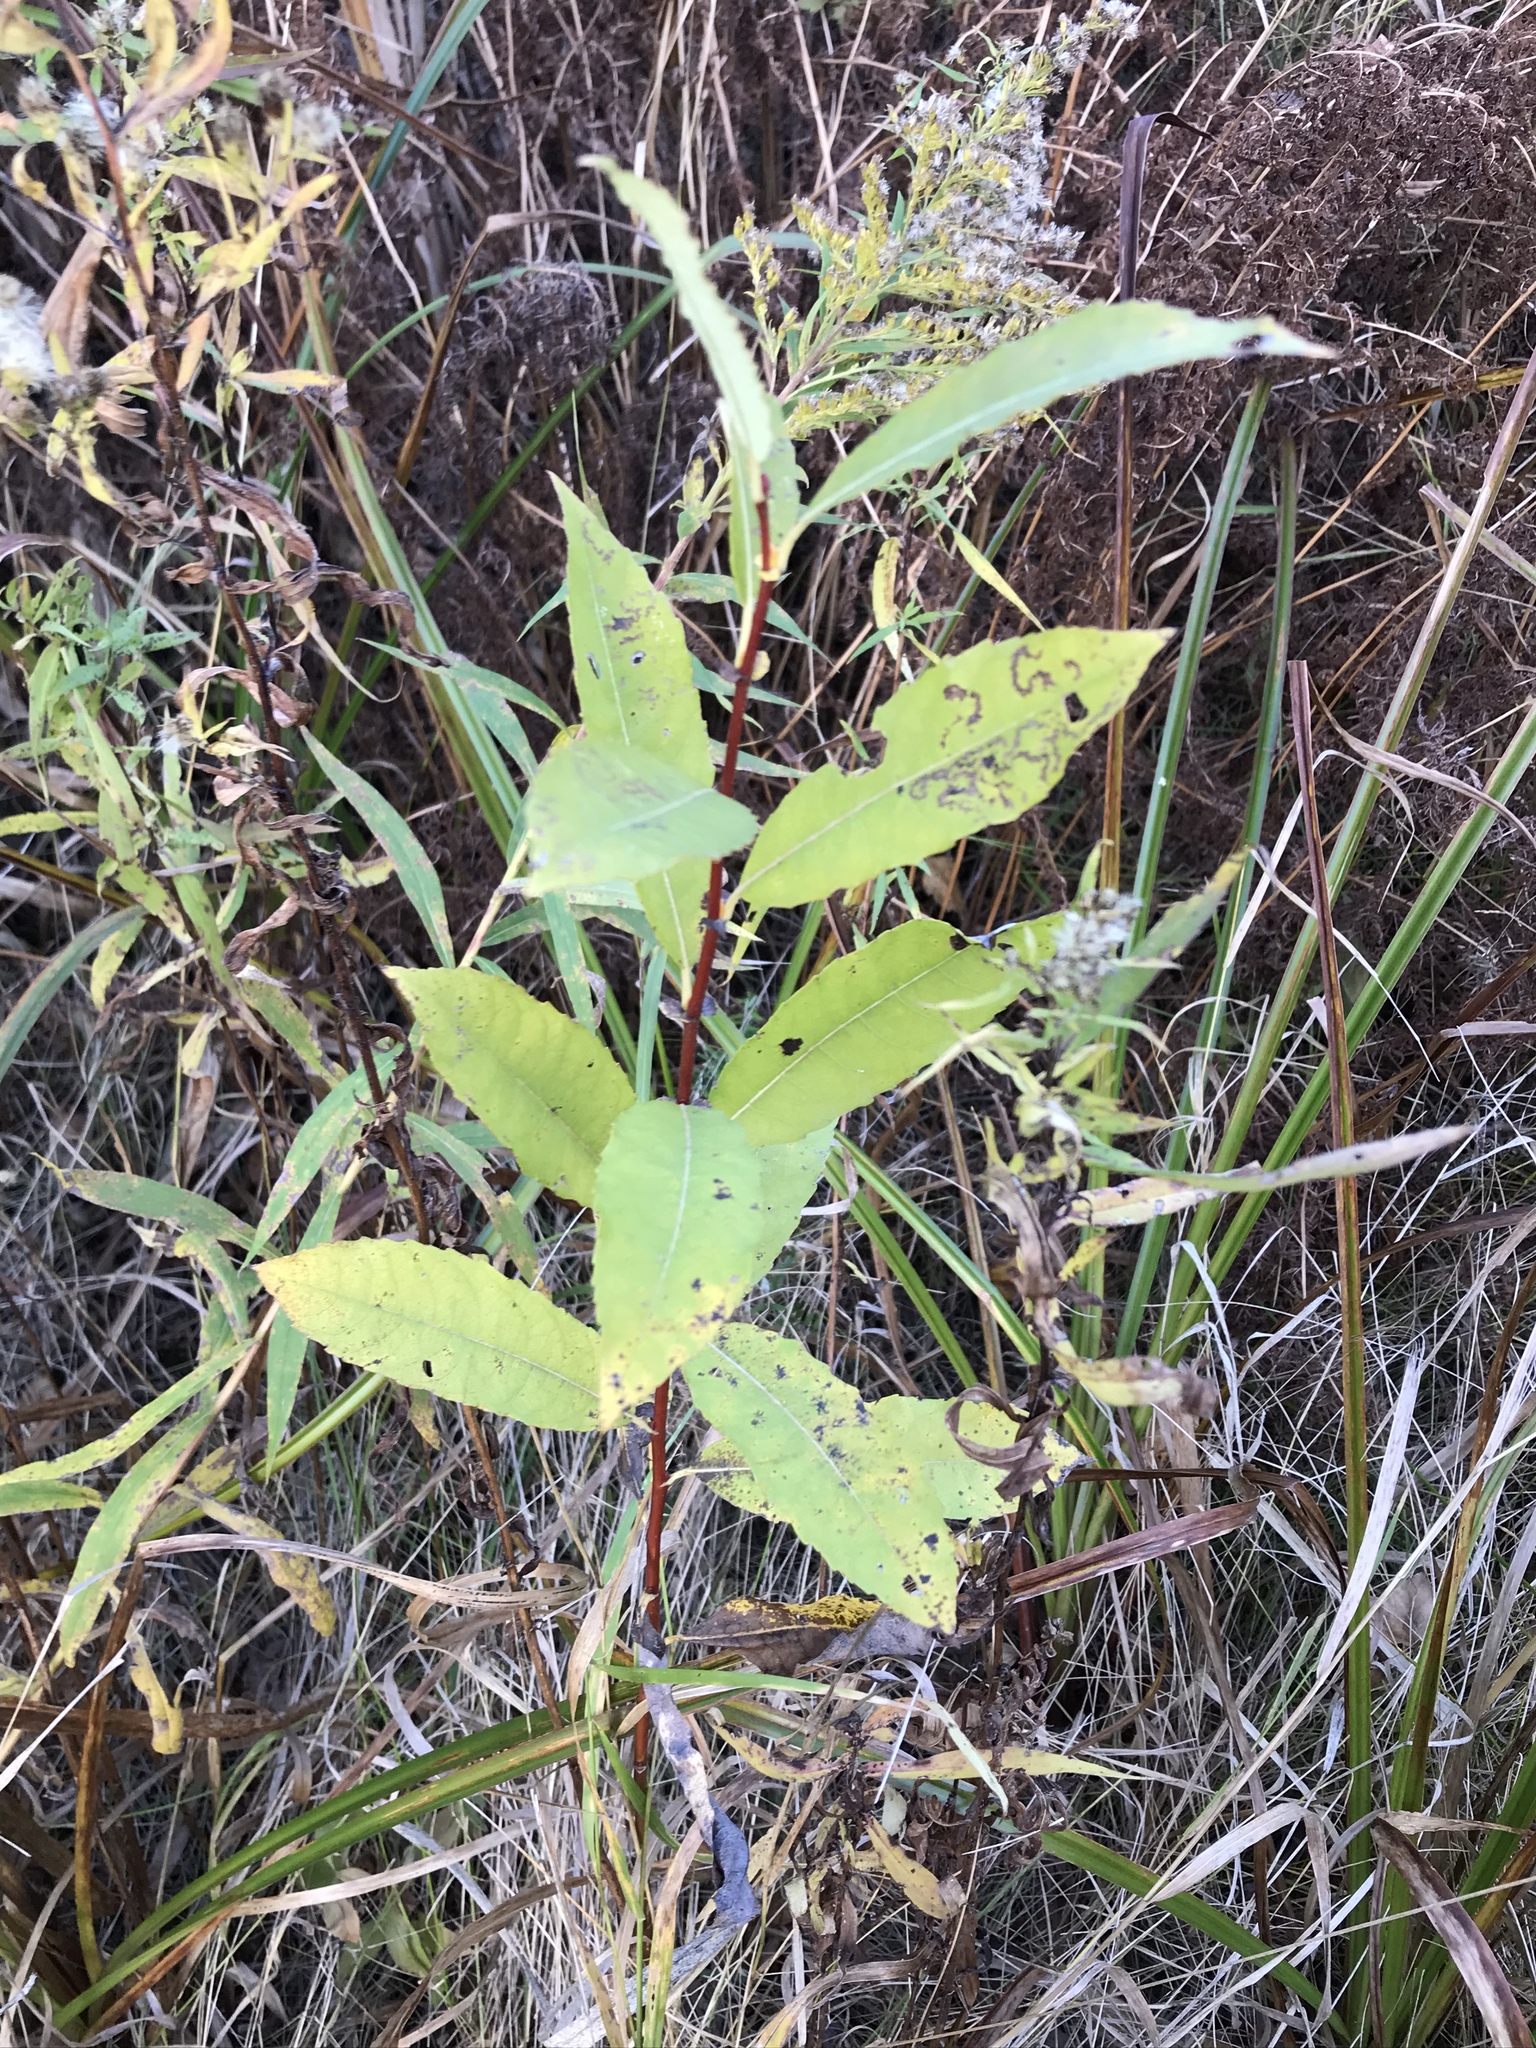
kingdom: Plantae
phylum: Tracheophyta
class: Magnoliopsida
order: Malpighiales
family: Salicaceae
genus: Salix
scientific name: Salix discolor
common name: Glaucous willow
